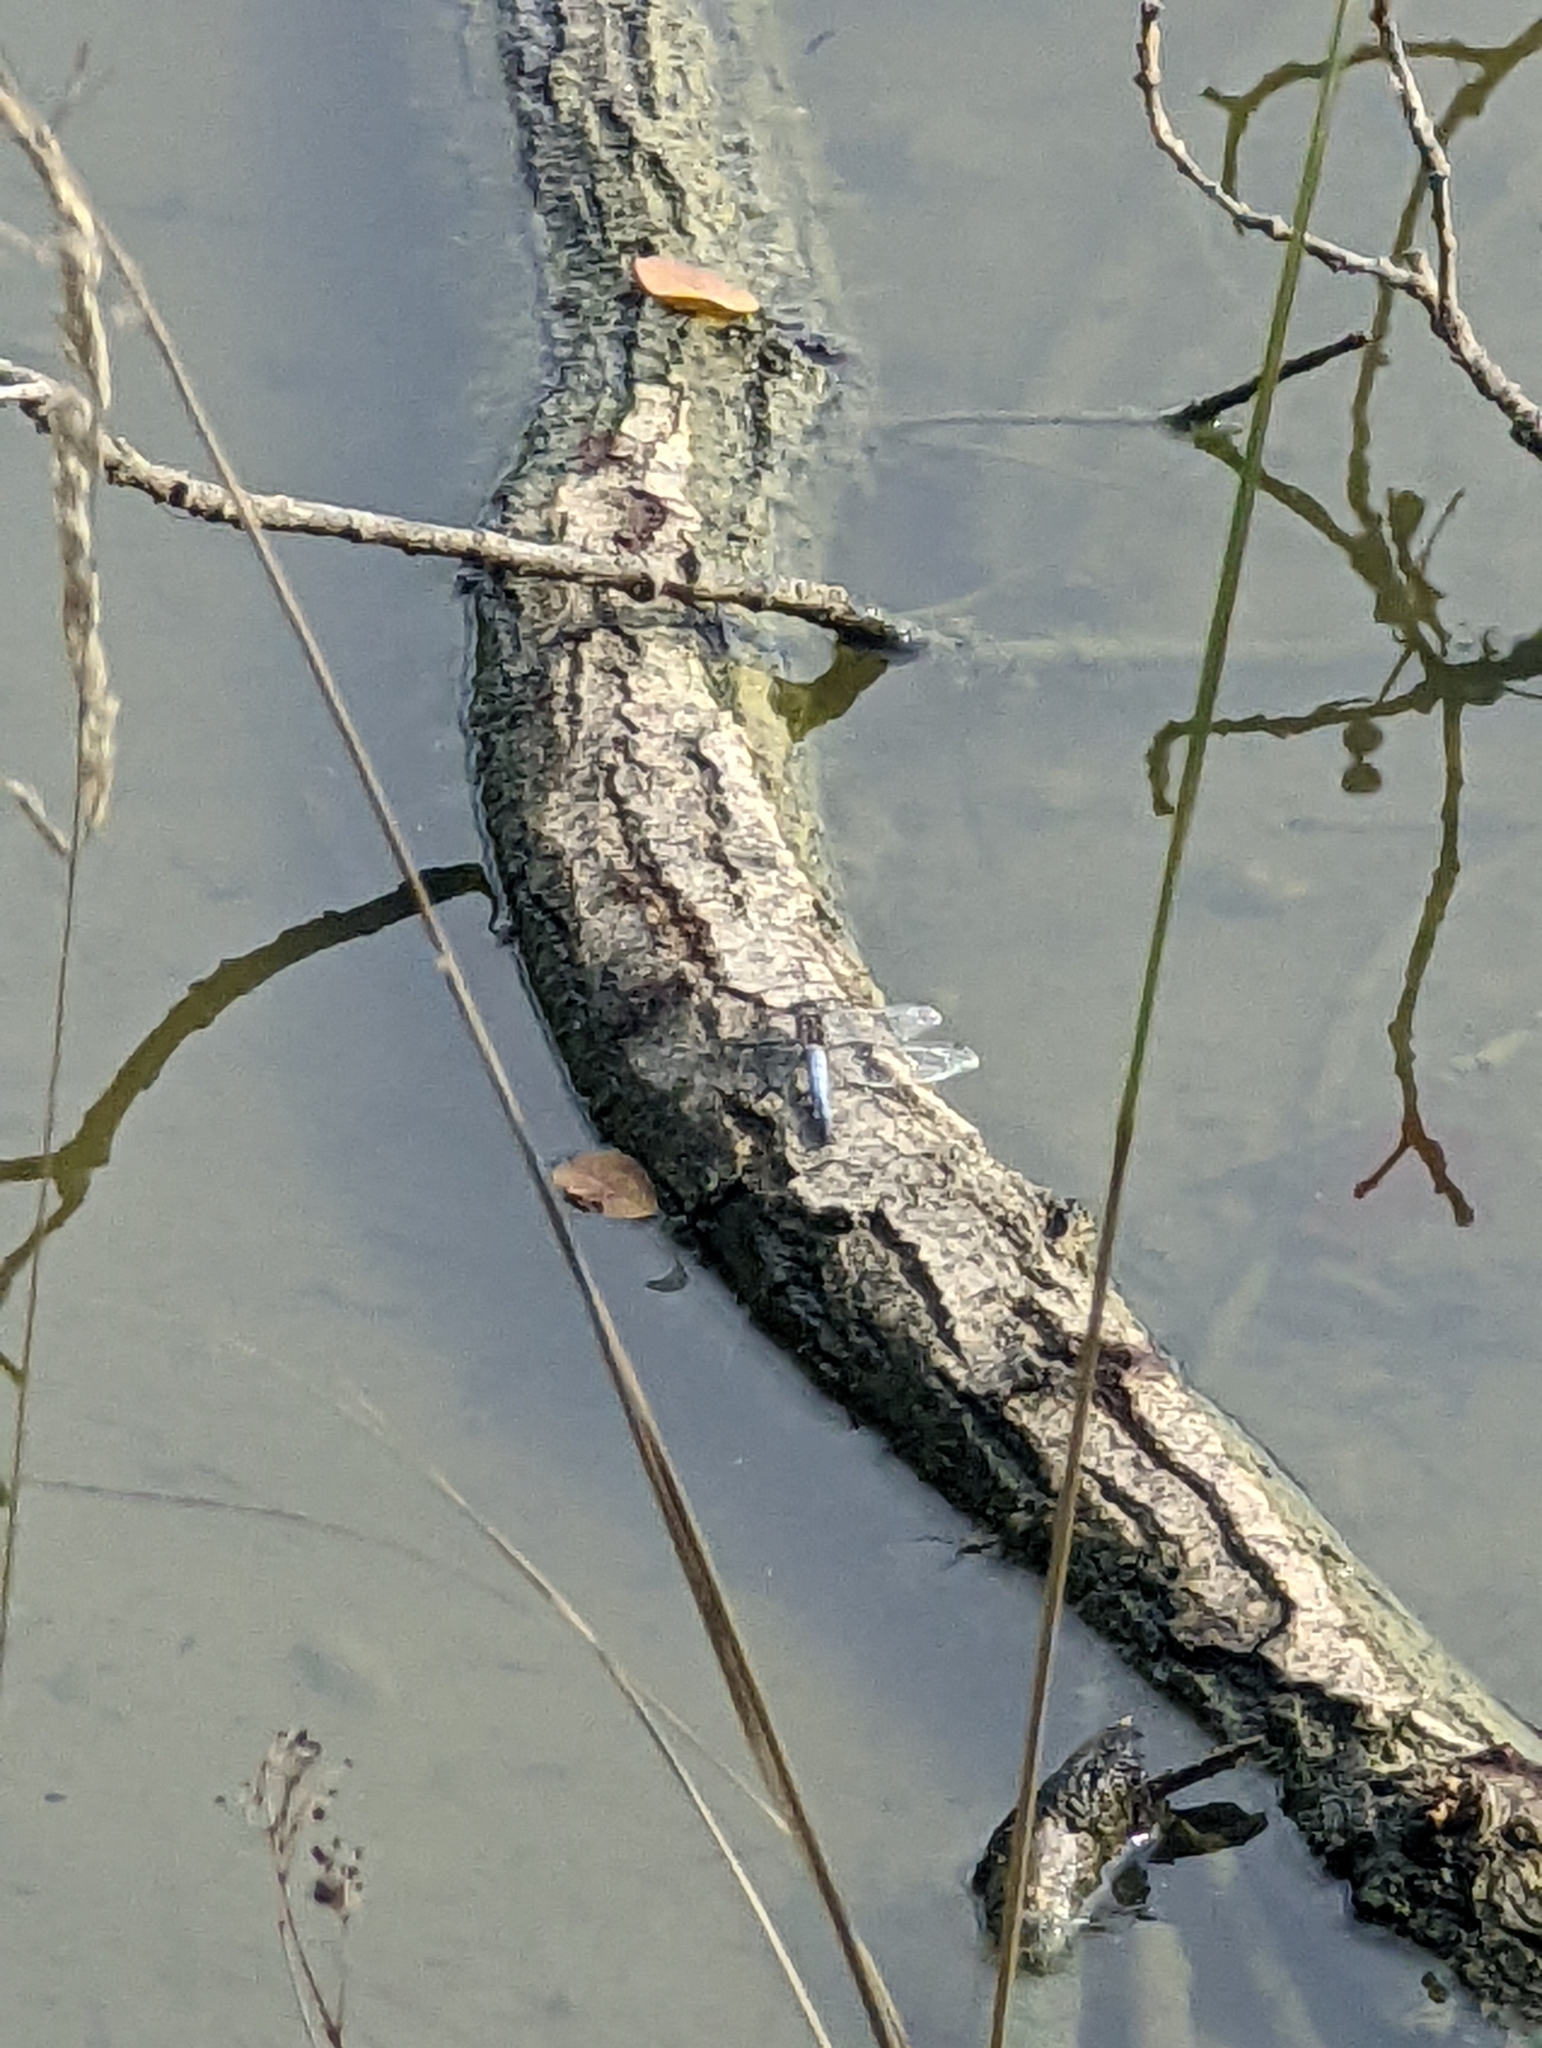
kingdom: Animalia
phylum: Arthropoda
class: Insecta
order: Odonata
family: Libellulidae
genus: Orthetrum
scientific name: Orthetrum cancellatum
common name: Black-tailed skimmer
